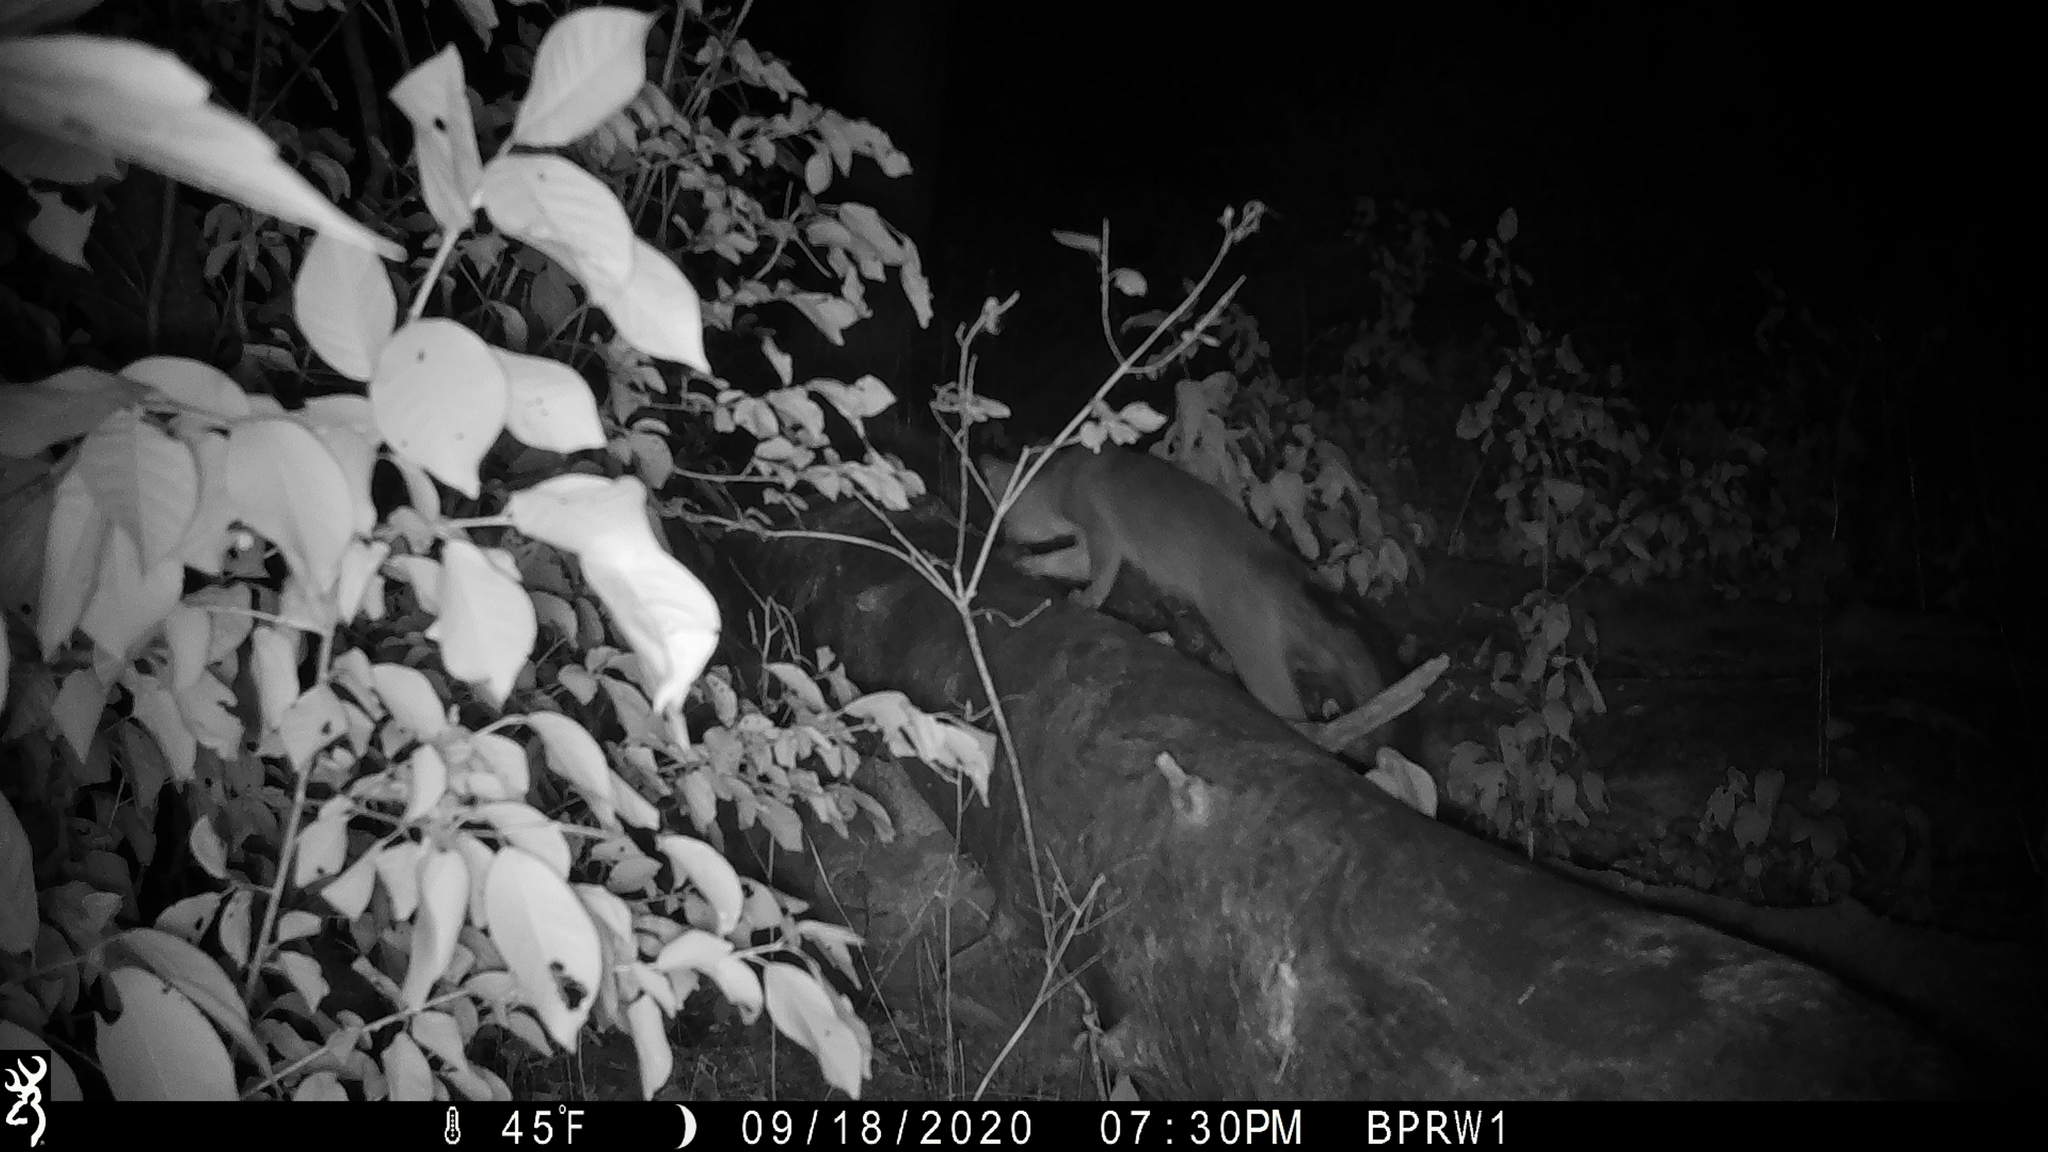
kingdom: Animalia
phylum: Chordata
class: Mammalia
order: Carnivora
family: Canidae
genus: Urocyon
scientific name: Urocyon cinereoargenteus
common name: Gray fox
